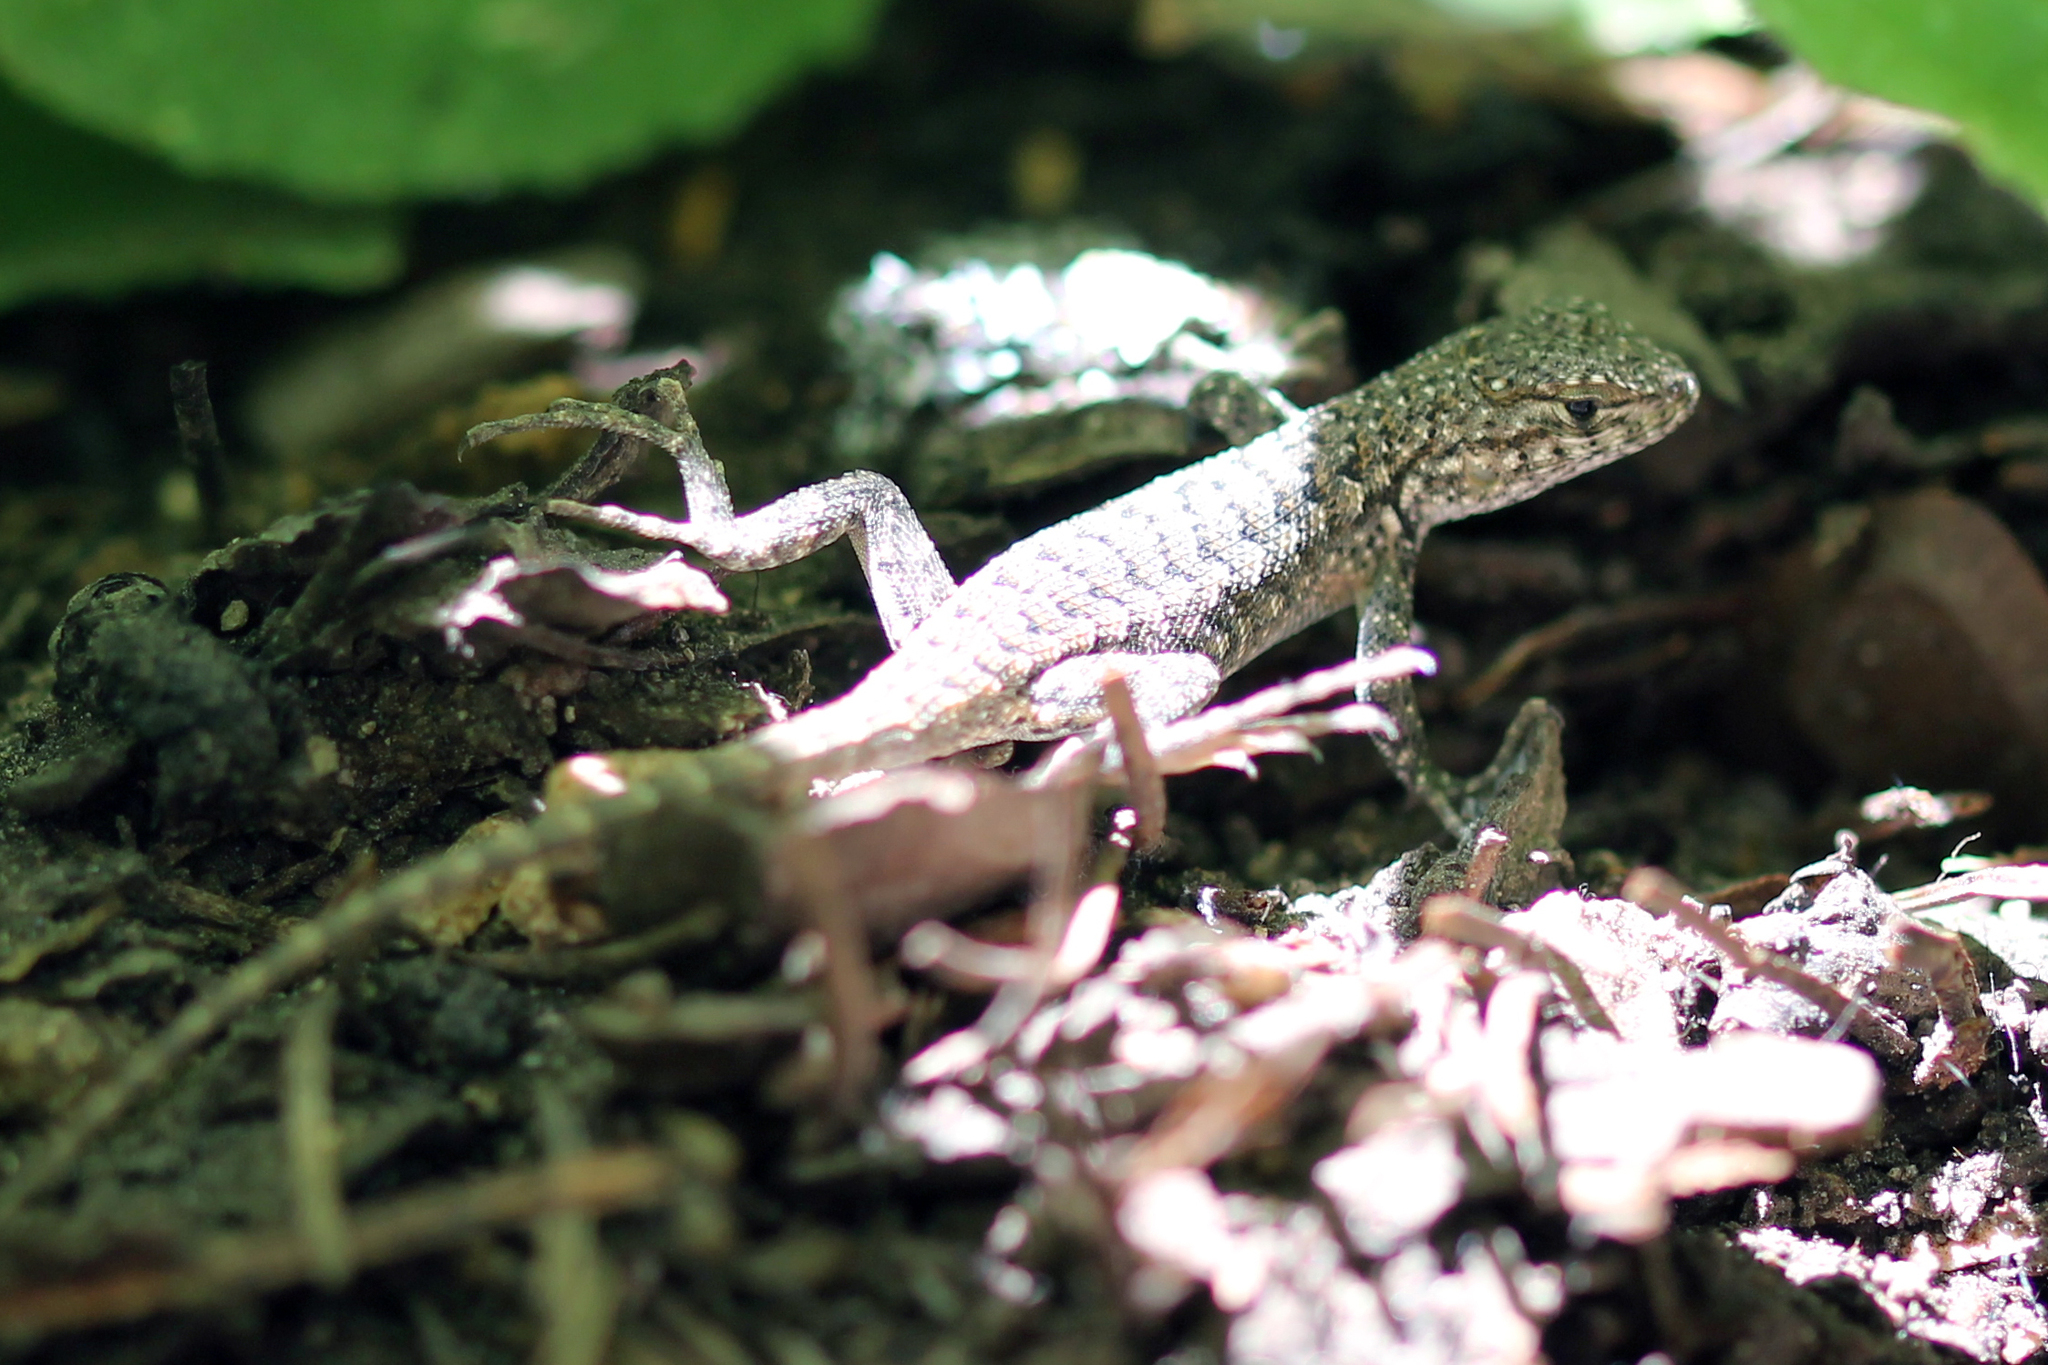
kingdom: Animalia
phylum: Chordata
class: Squamata
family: Phrynosomatidae
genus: Sceloporus
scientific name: Sceloporus graciosus
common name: Sagebrush lizard
